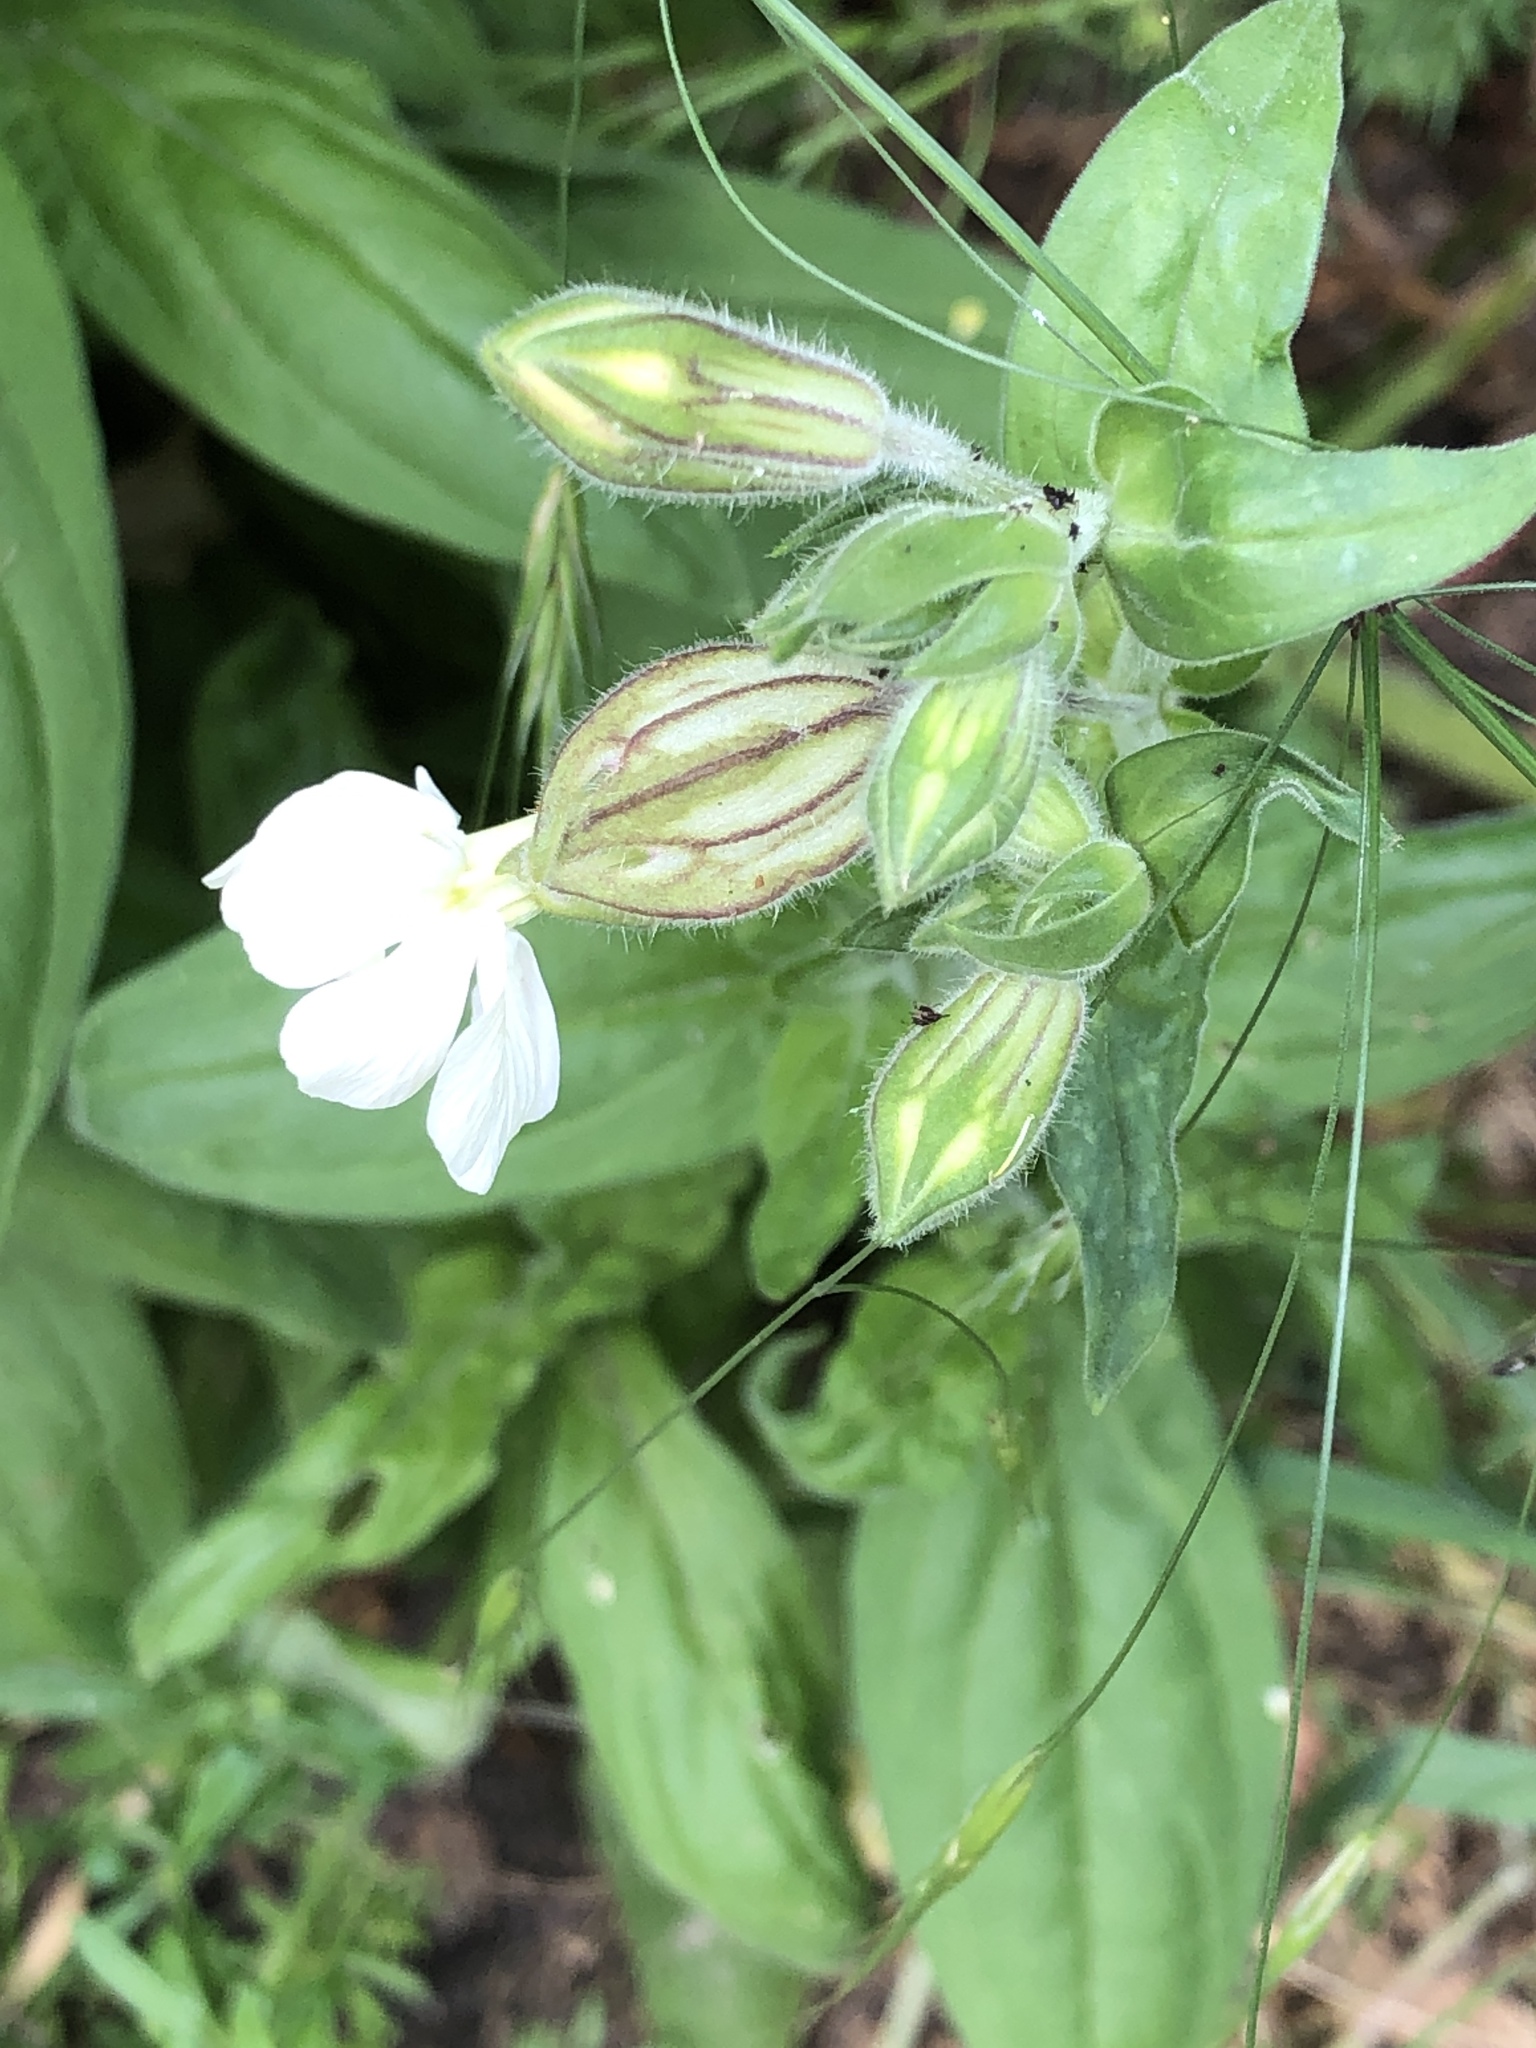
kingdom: Plantae
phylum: Tracheophyta
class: Magnoliopsida
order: Caryophyllales
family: Caryophyllaceae
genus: Silene
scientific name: Silene latifolia
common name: White campion
